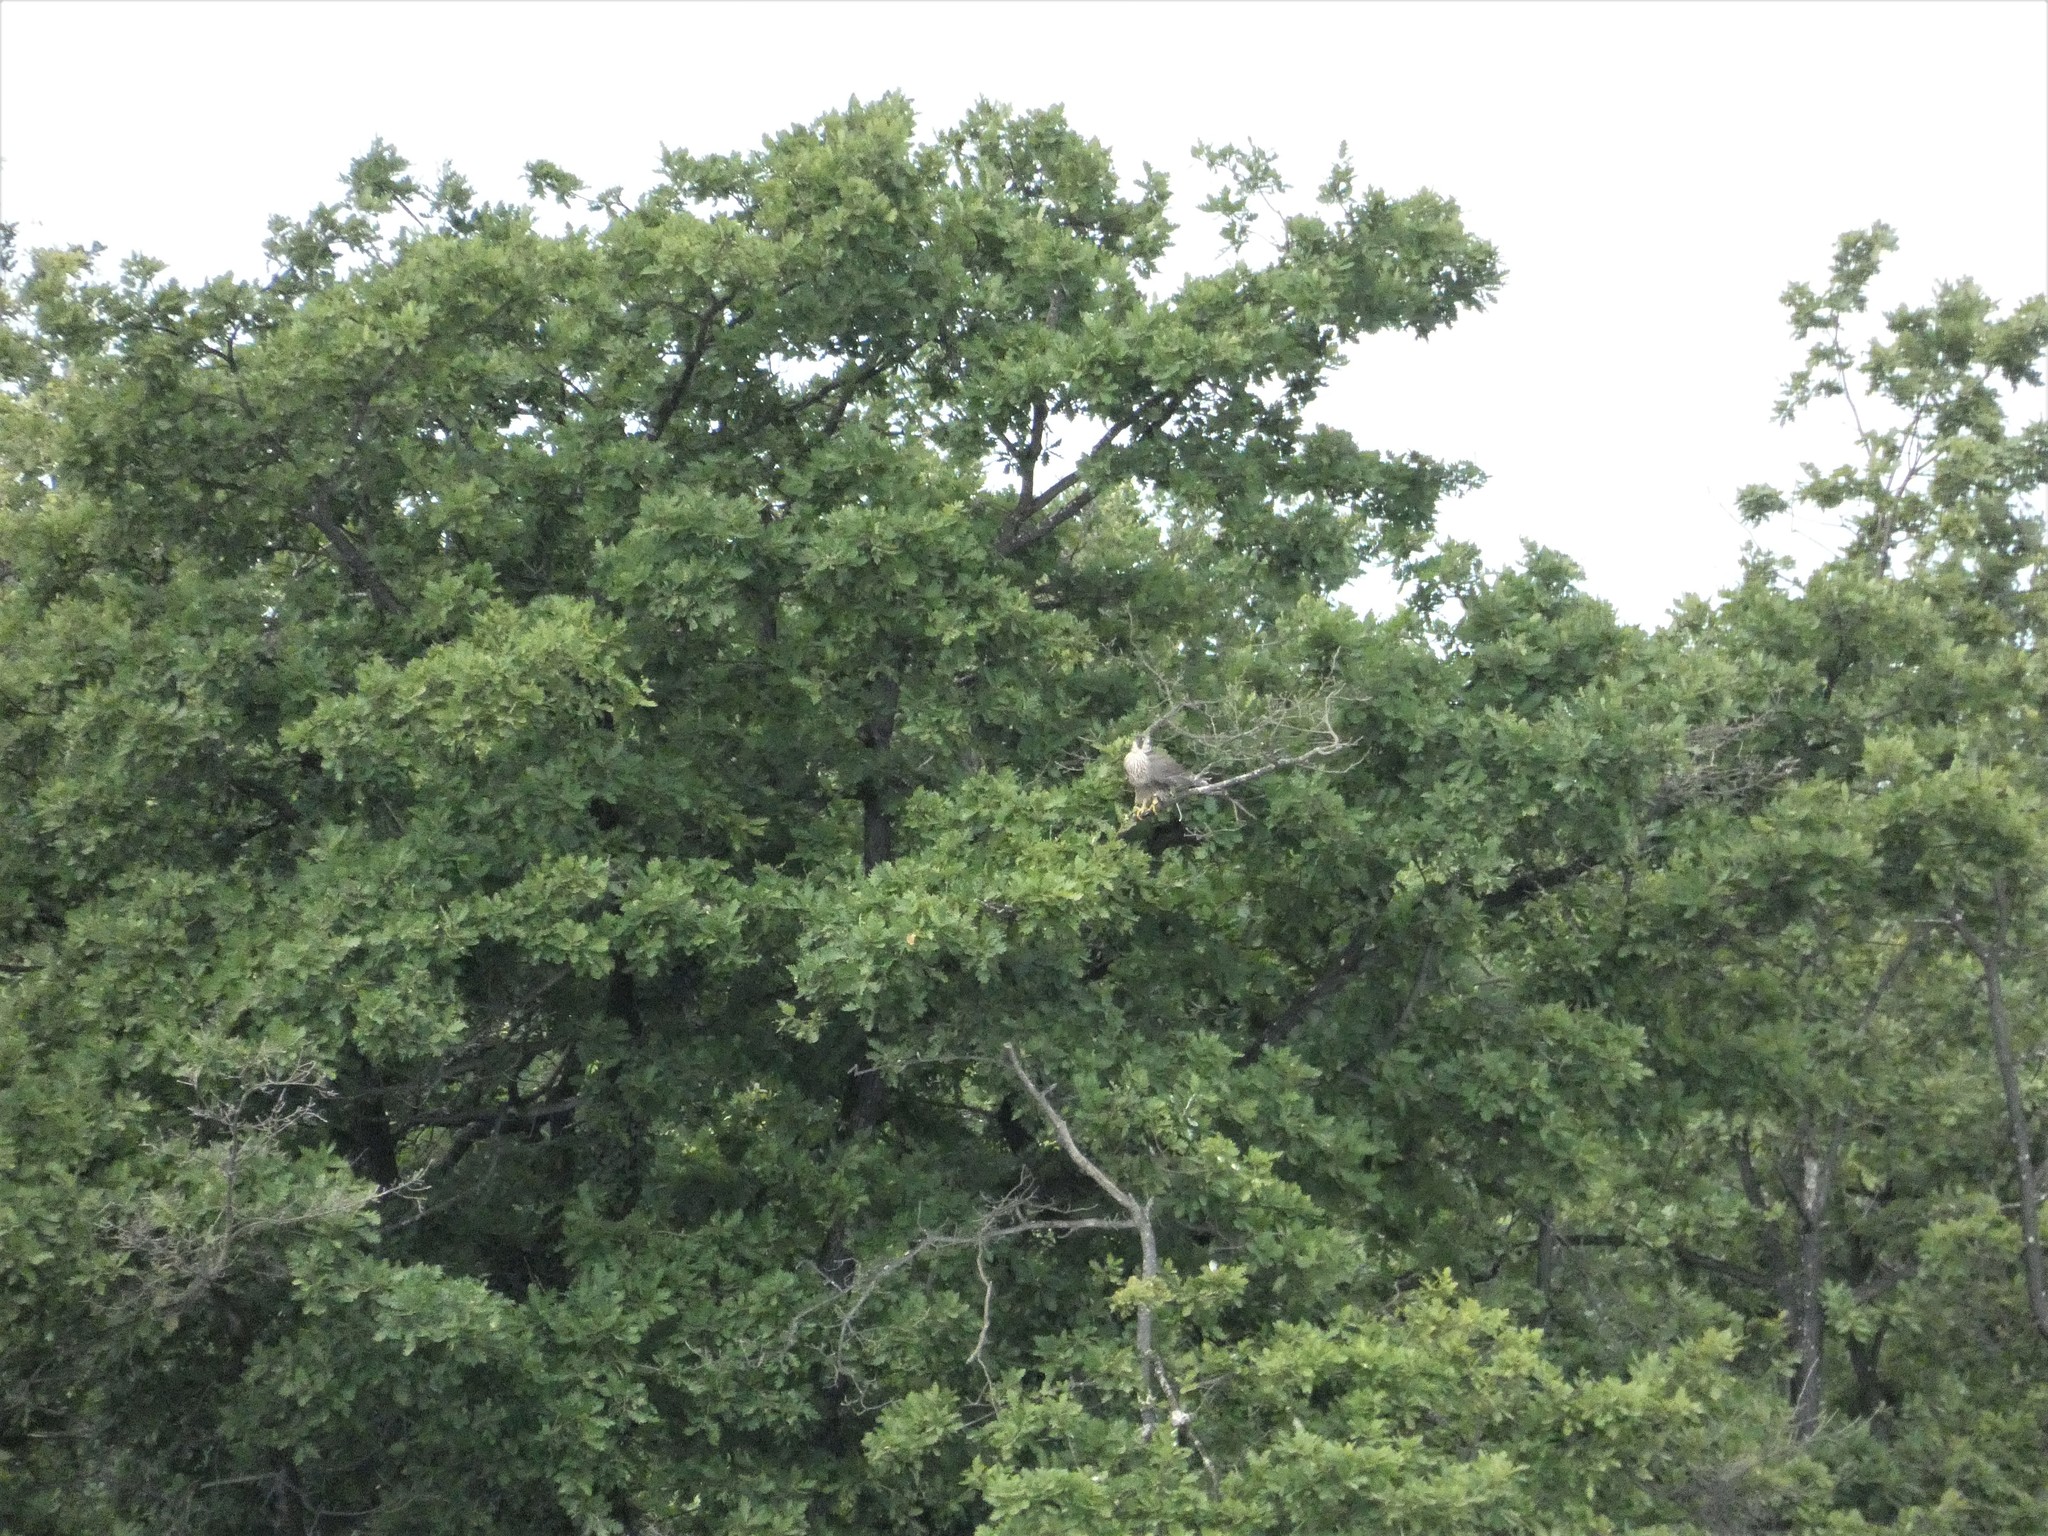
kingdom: Animalia
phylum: Chordata
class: Aves
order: Falconiformes
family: Falconidae
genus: Falco
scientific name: Falco peregrinus
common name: Peregrine falcon
